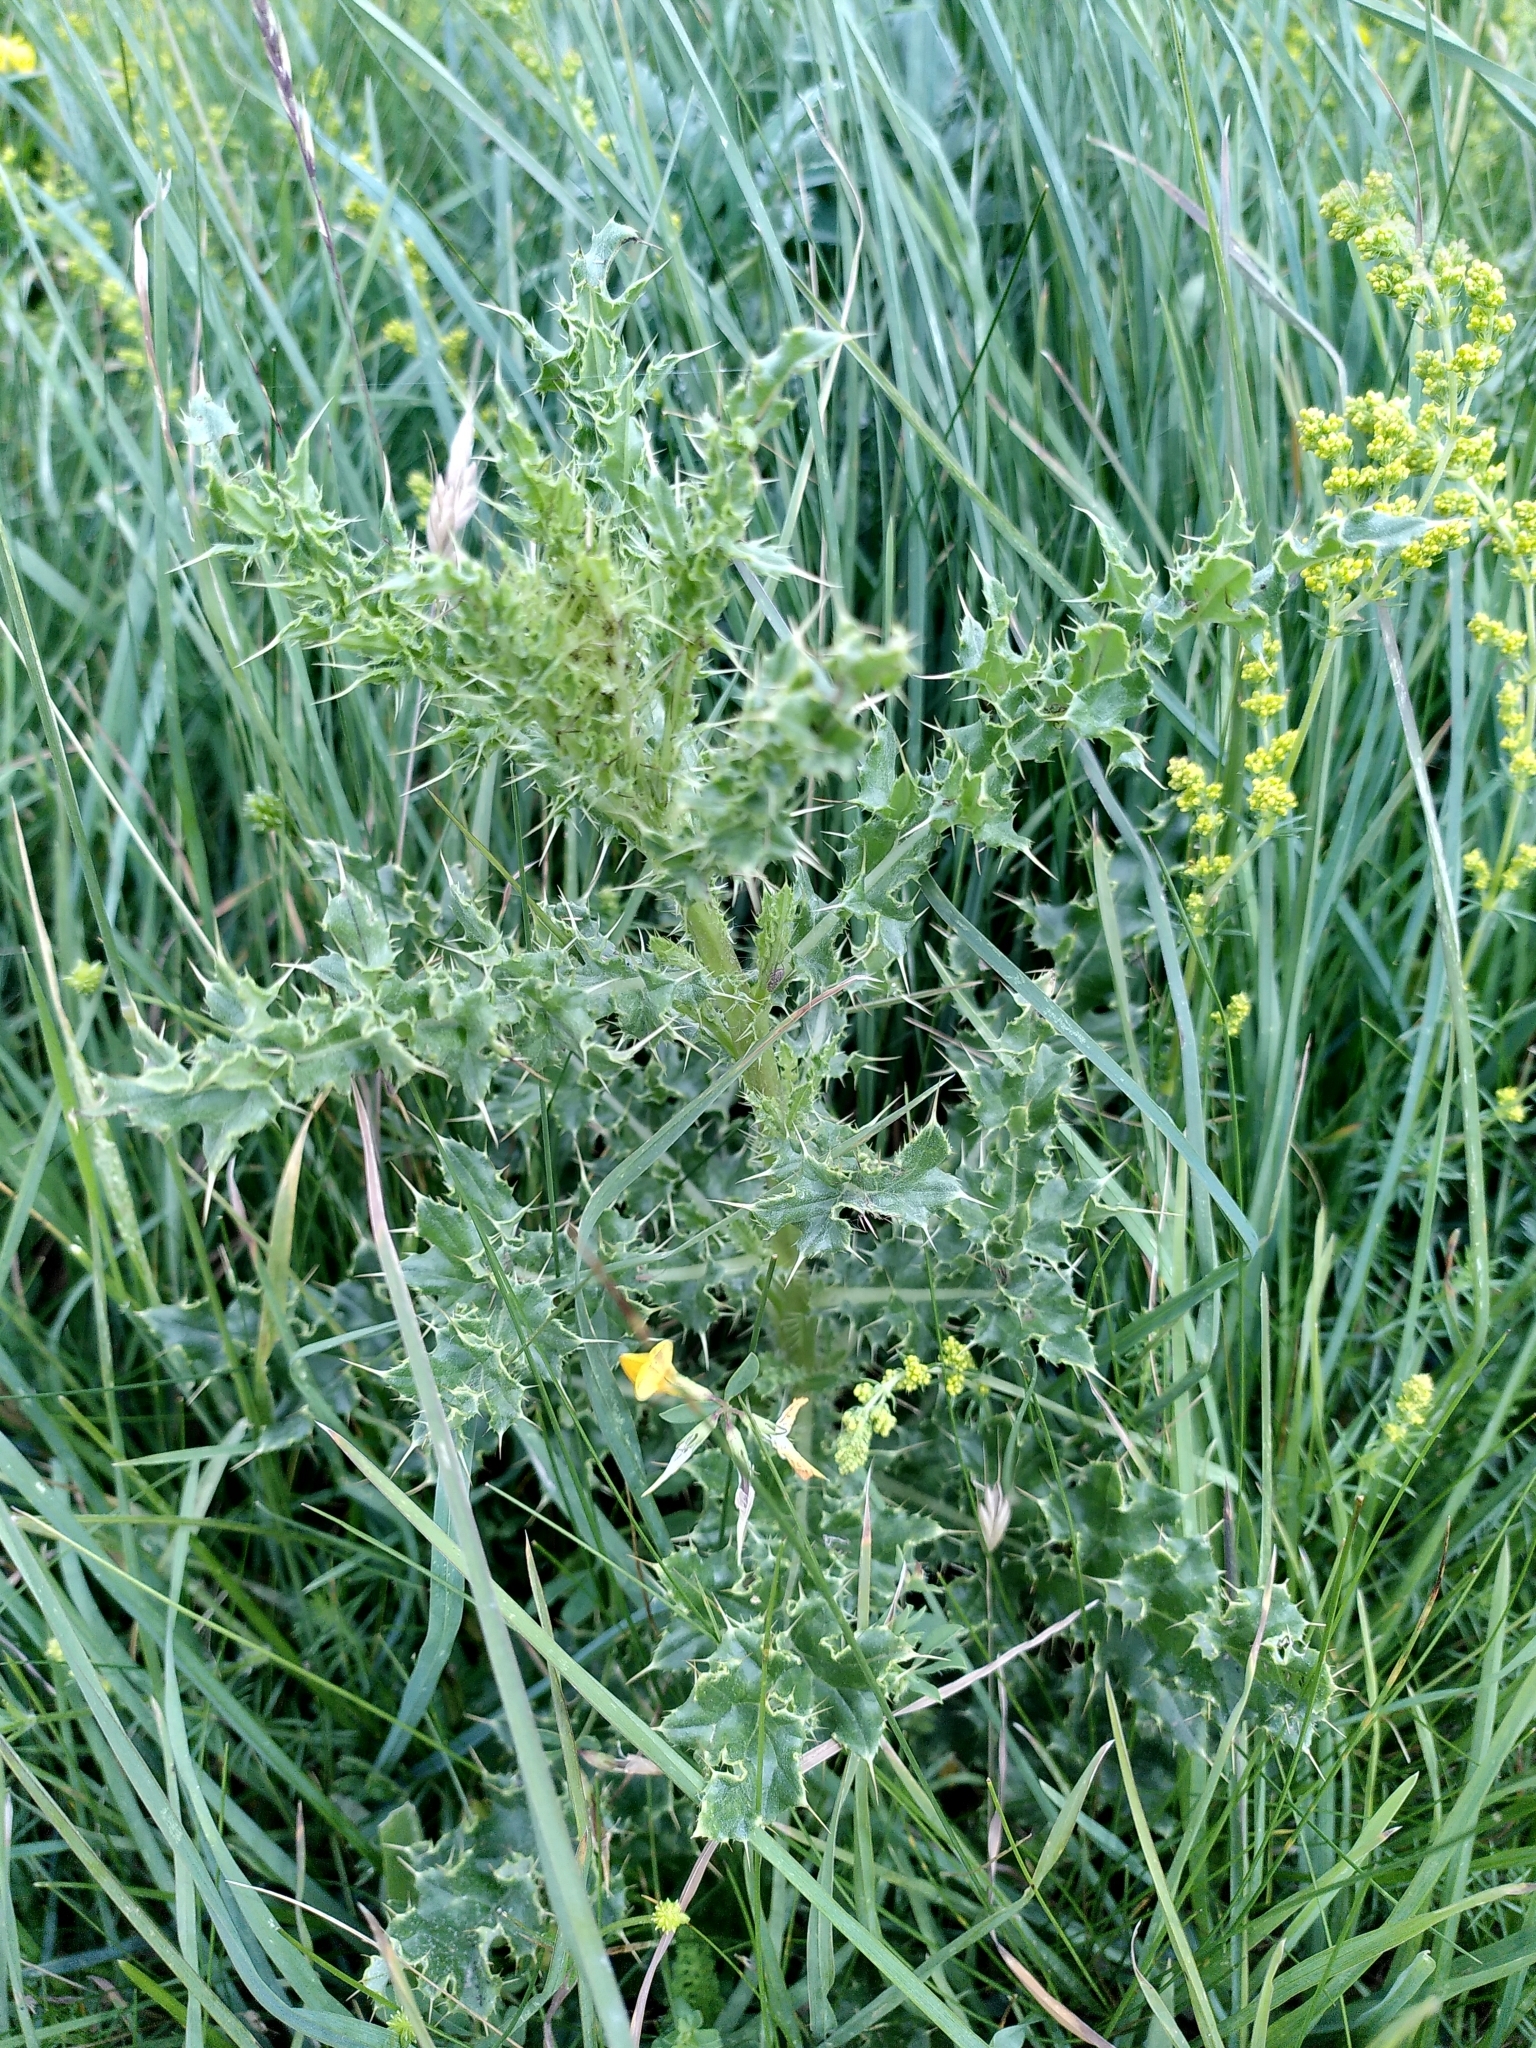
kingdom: Plantae
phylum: Tracheophyta
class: Magnoliopsida
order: Asterales
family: Asteraceae
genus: Cirsium
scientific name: Cirsium arvense
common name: Creeping thistle
